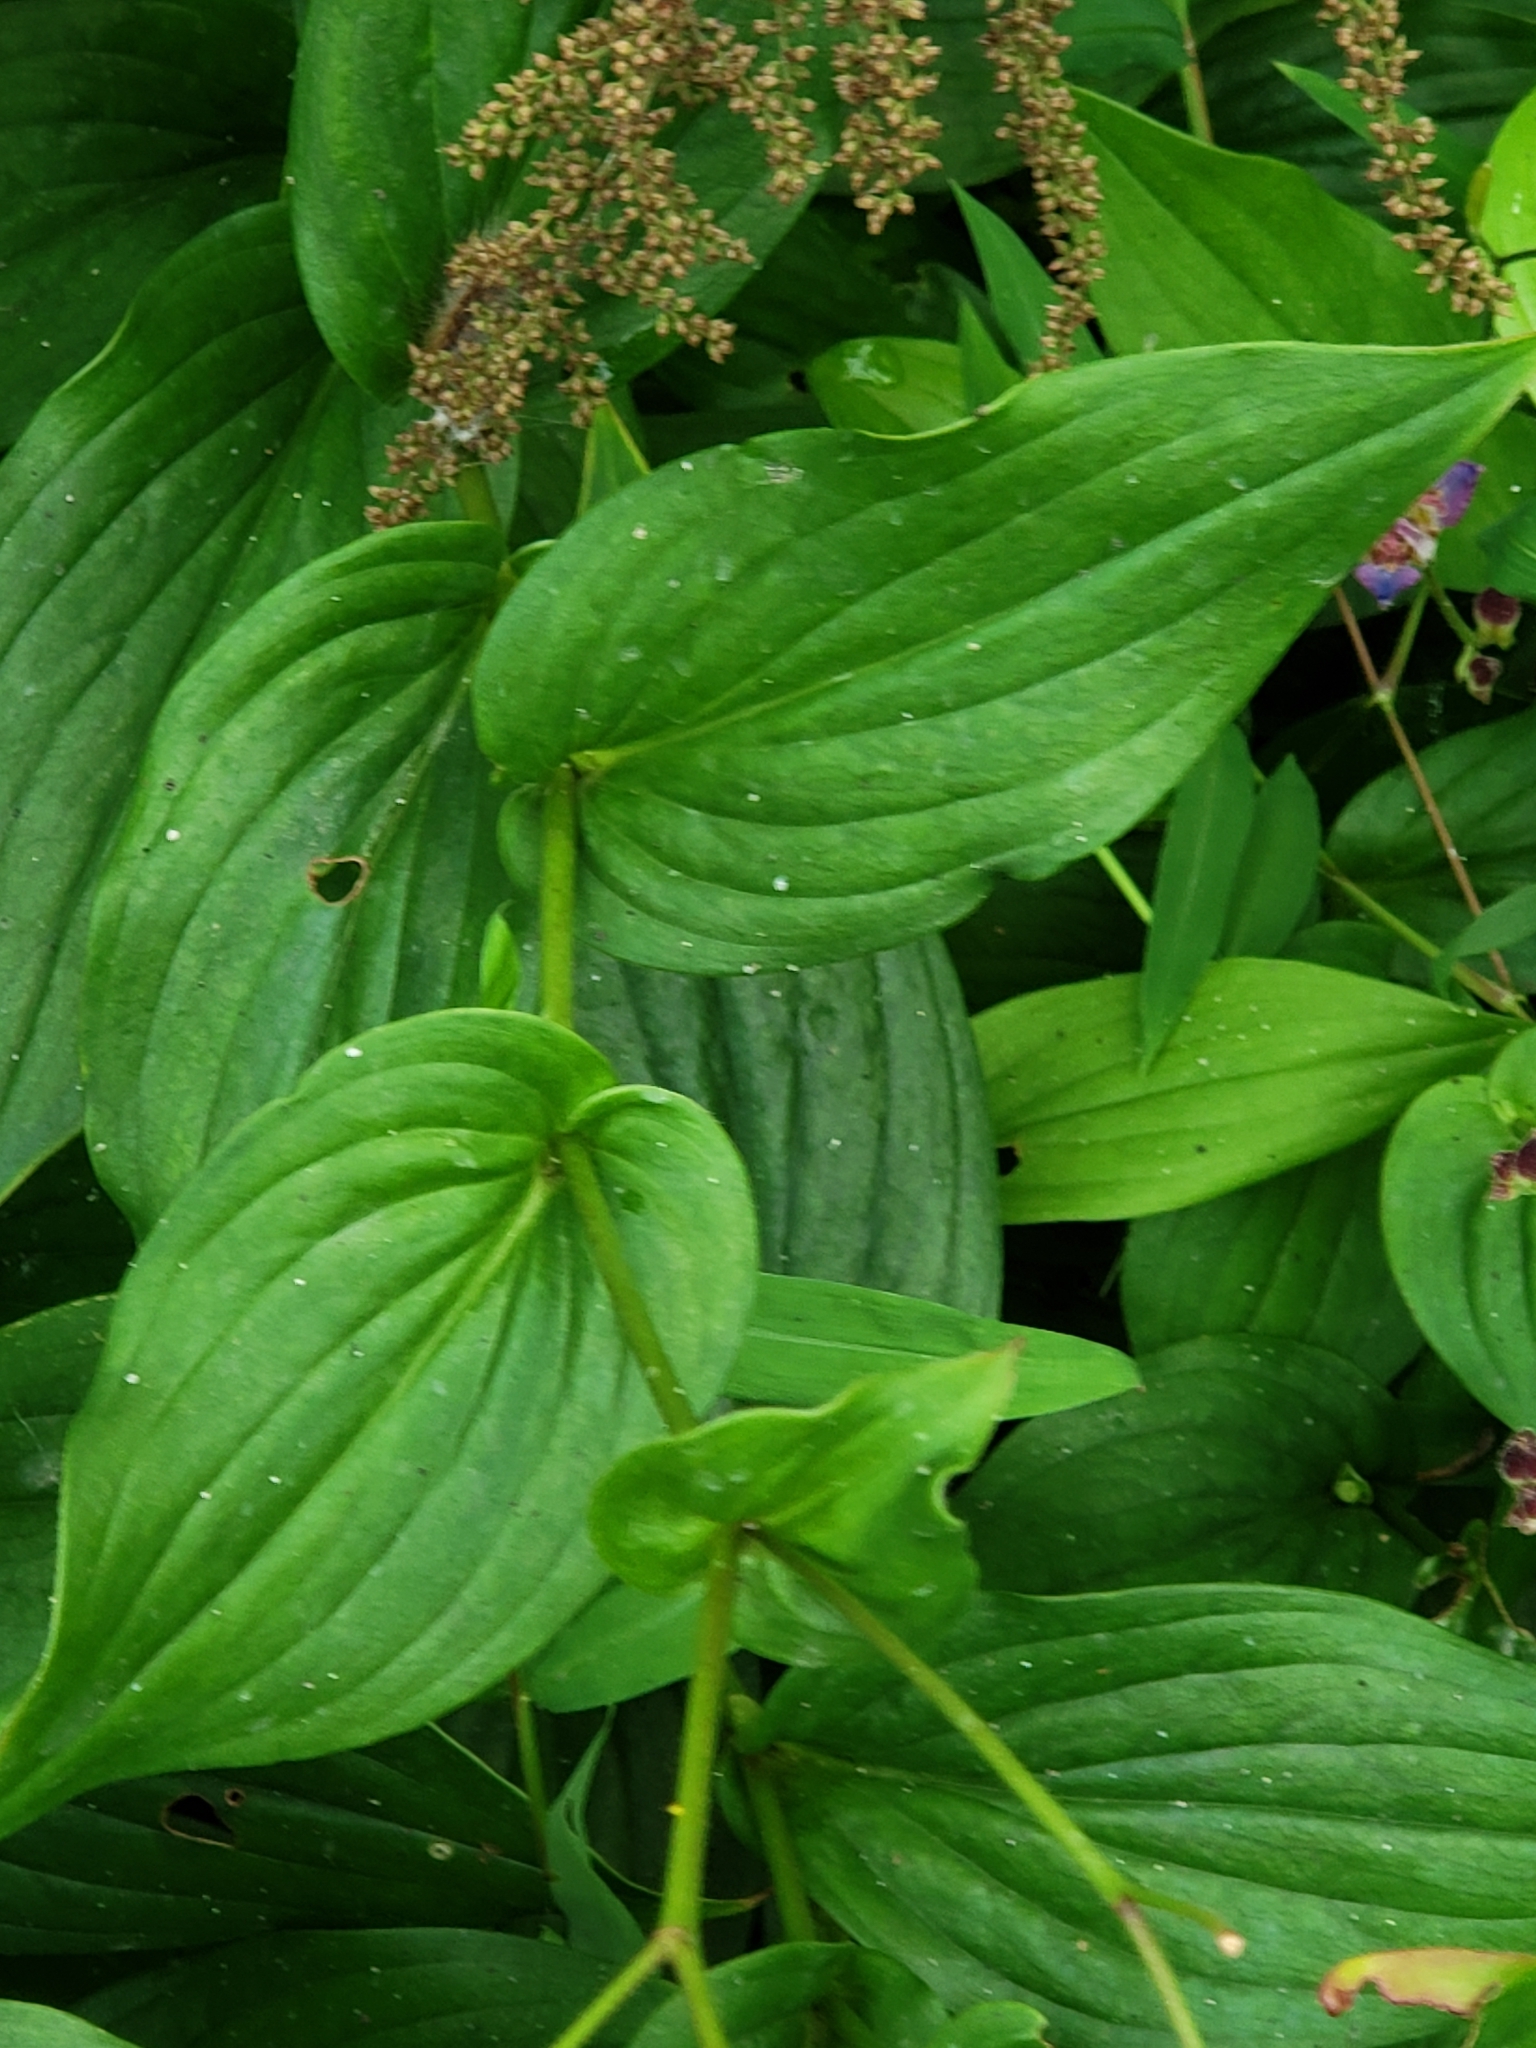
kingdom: Plantae
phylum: Tracheophyta
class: Liliopsida
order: Liliales
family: Liliaceae
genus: Tricyrtis
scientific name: Tricyrtis formosana
